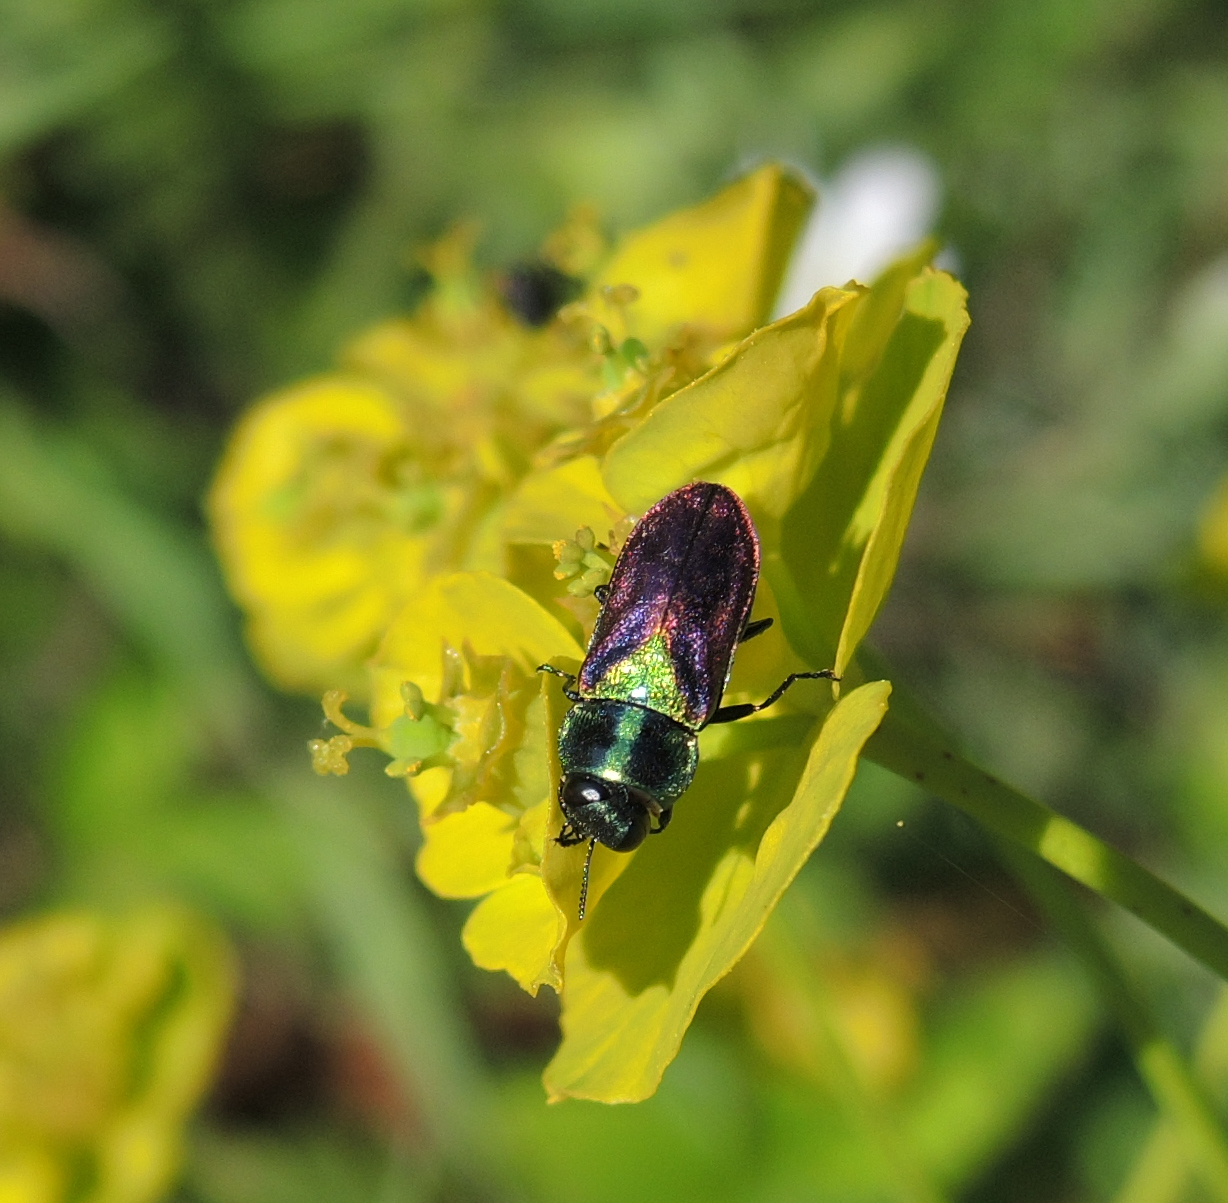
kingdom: Animalia
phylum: Arthropoda
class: Insecta
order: Coleoptera
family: Buprestidae
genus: Anthaxia
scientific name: Anthaxia bicolor
